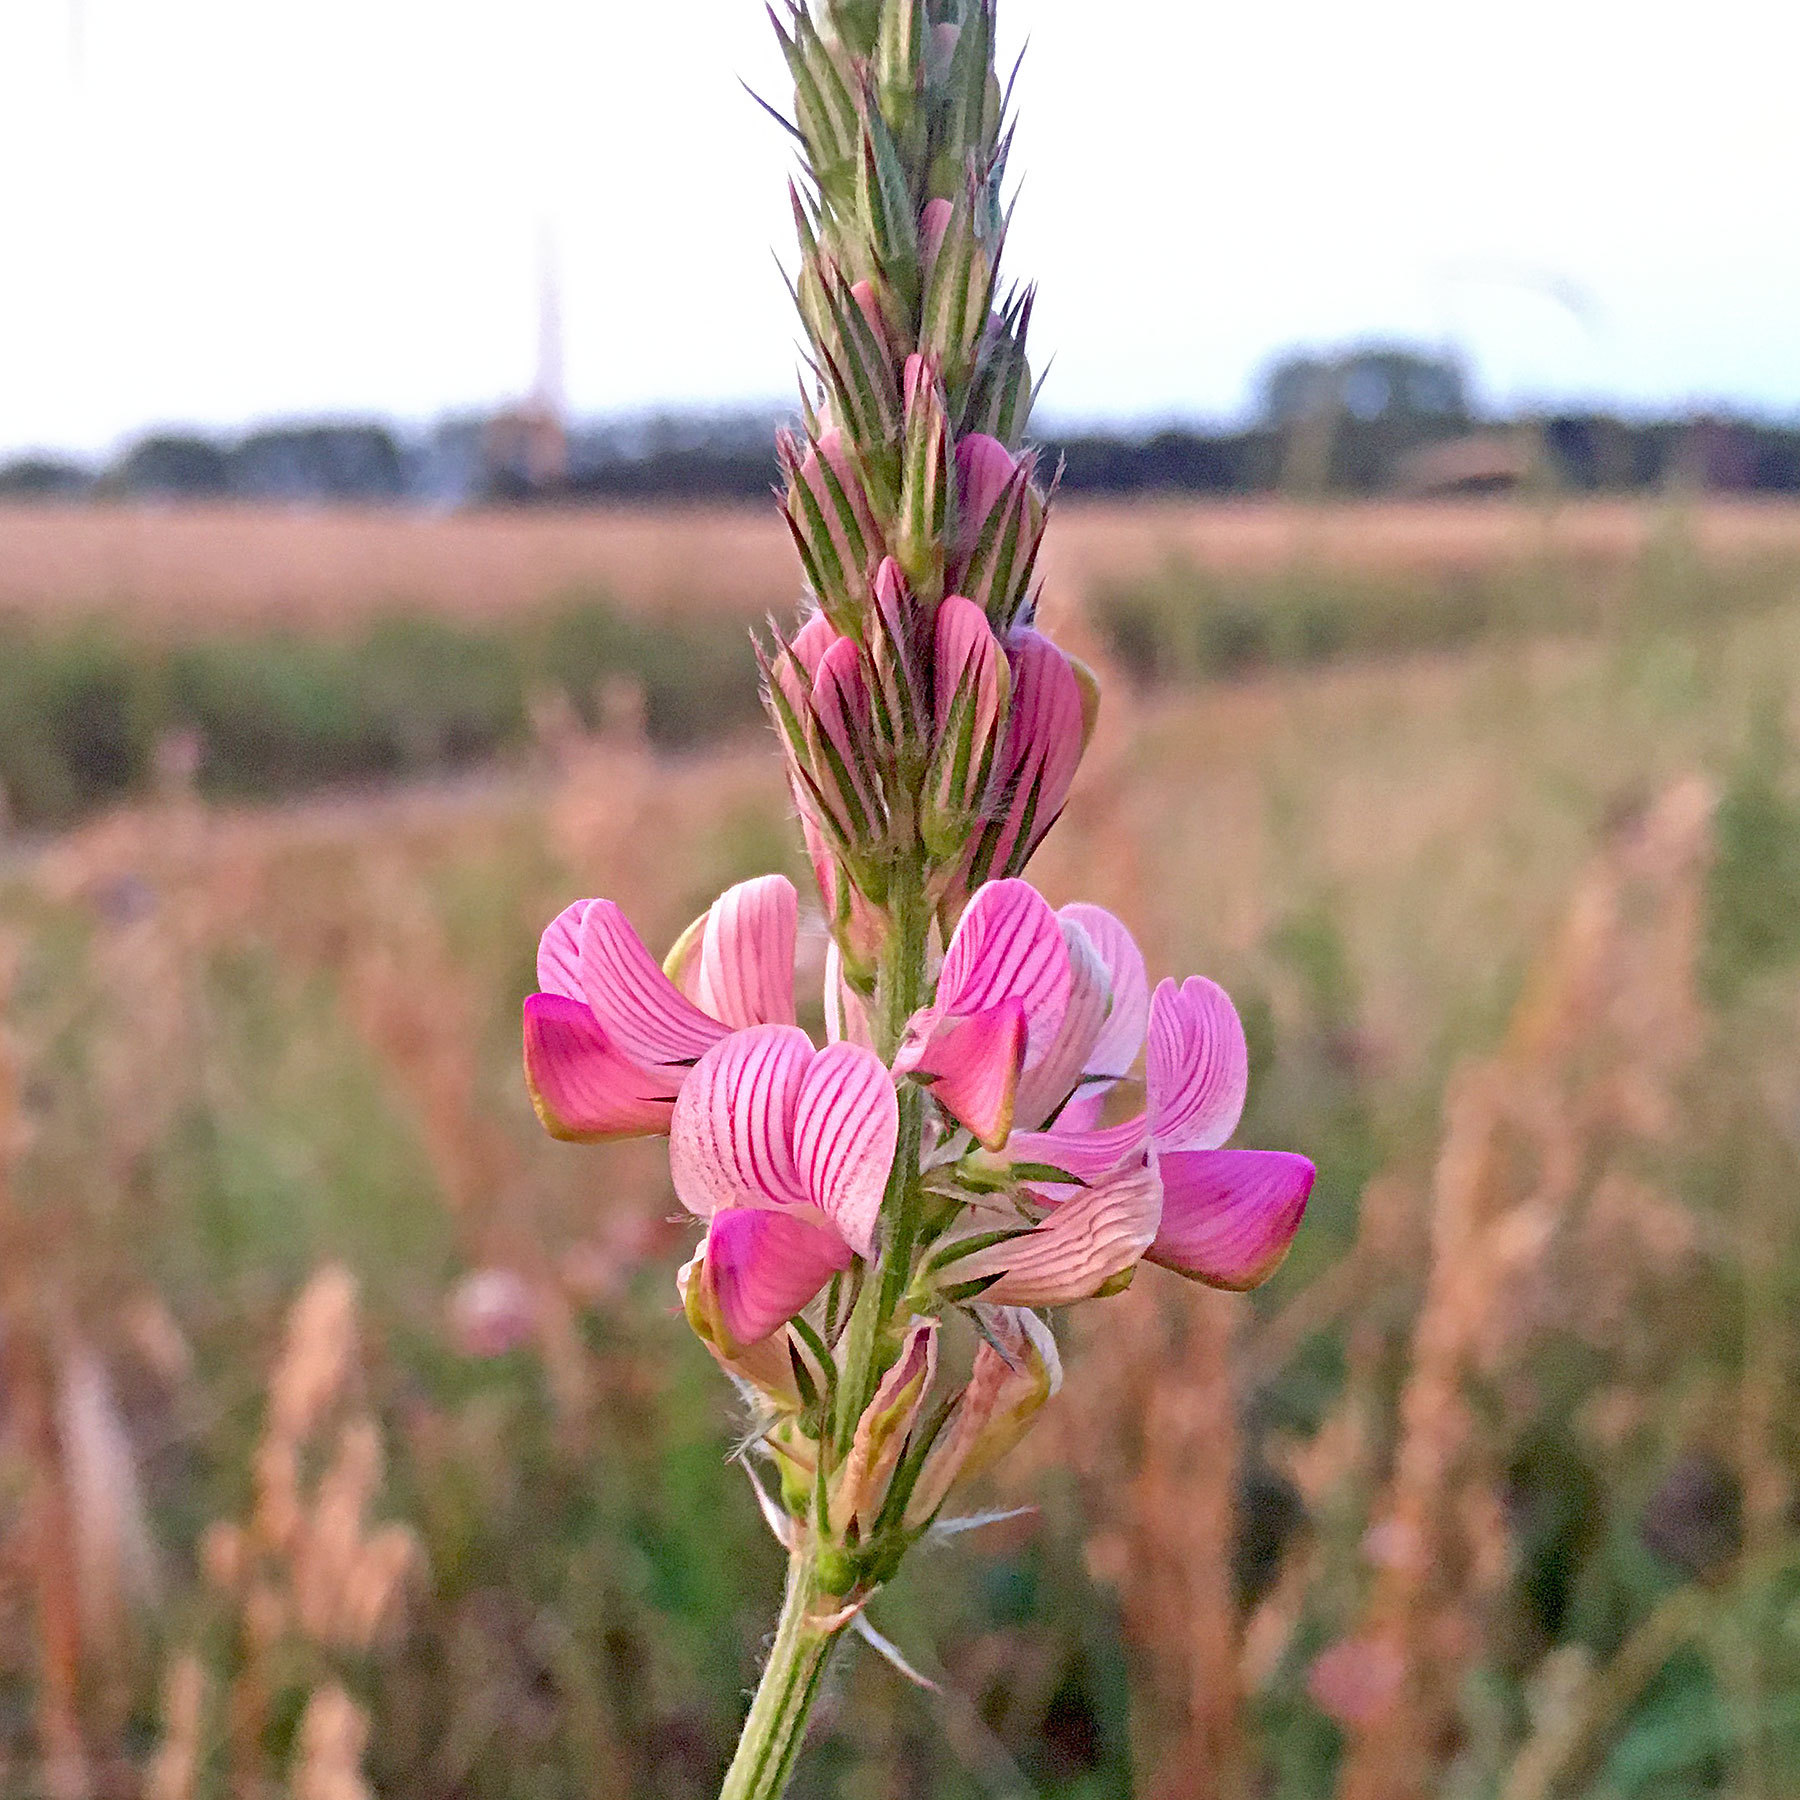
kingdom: Plantae
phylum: Tracheophyta
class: Magnoliopsida
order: Fabales
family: Fabaceae
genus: Onobrychis
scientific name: Onobrychis viciifolia
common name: Sainfoin
